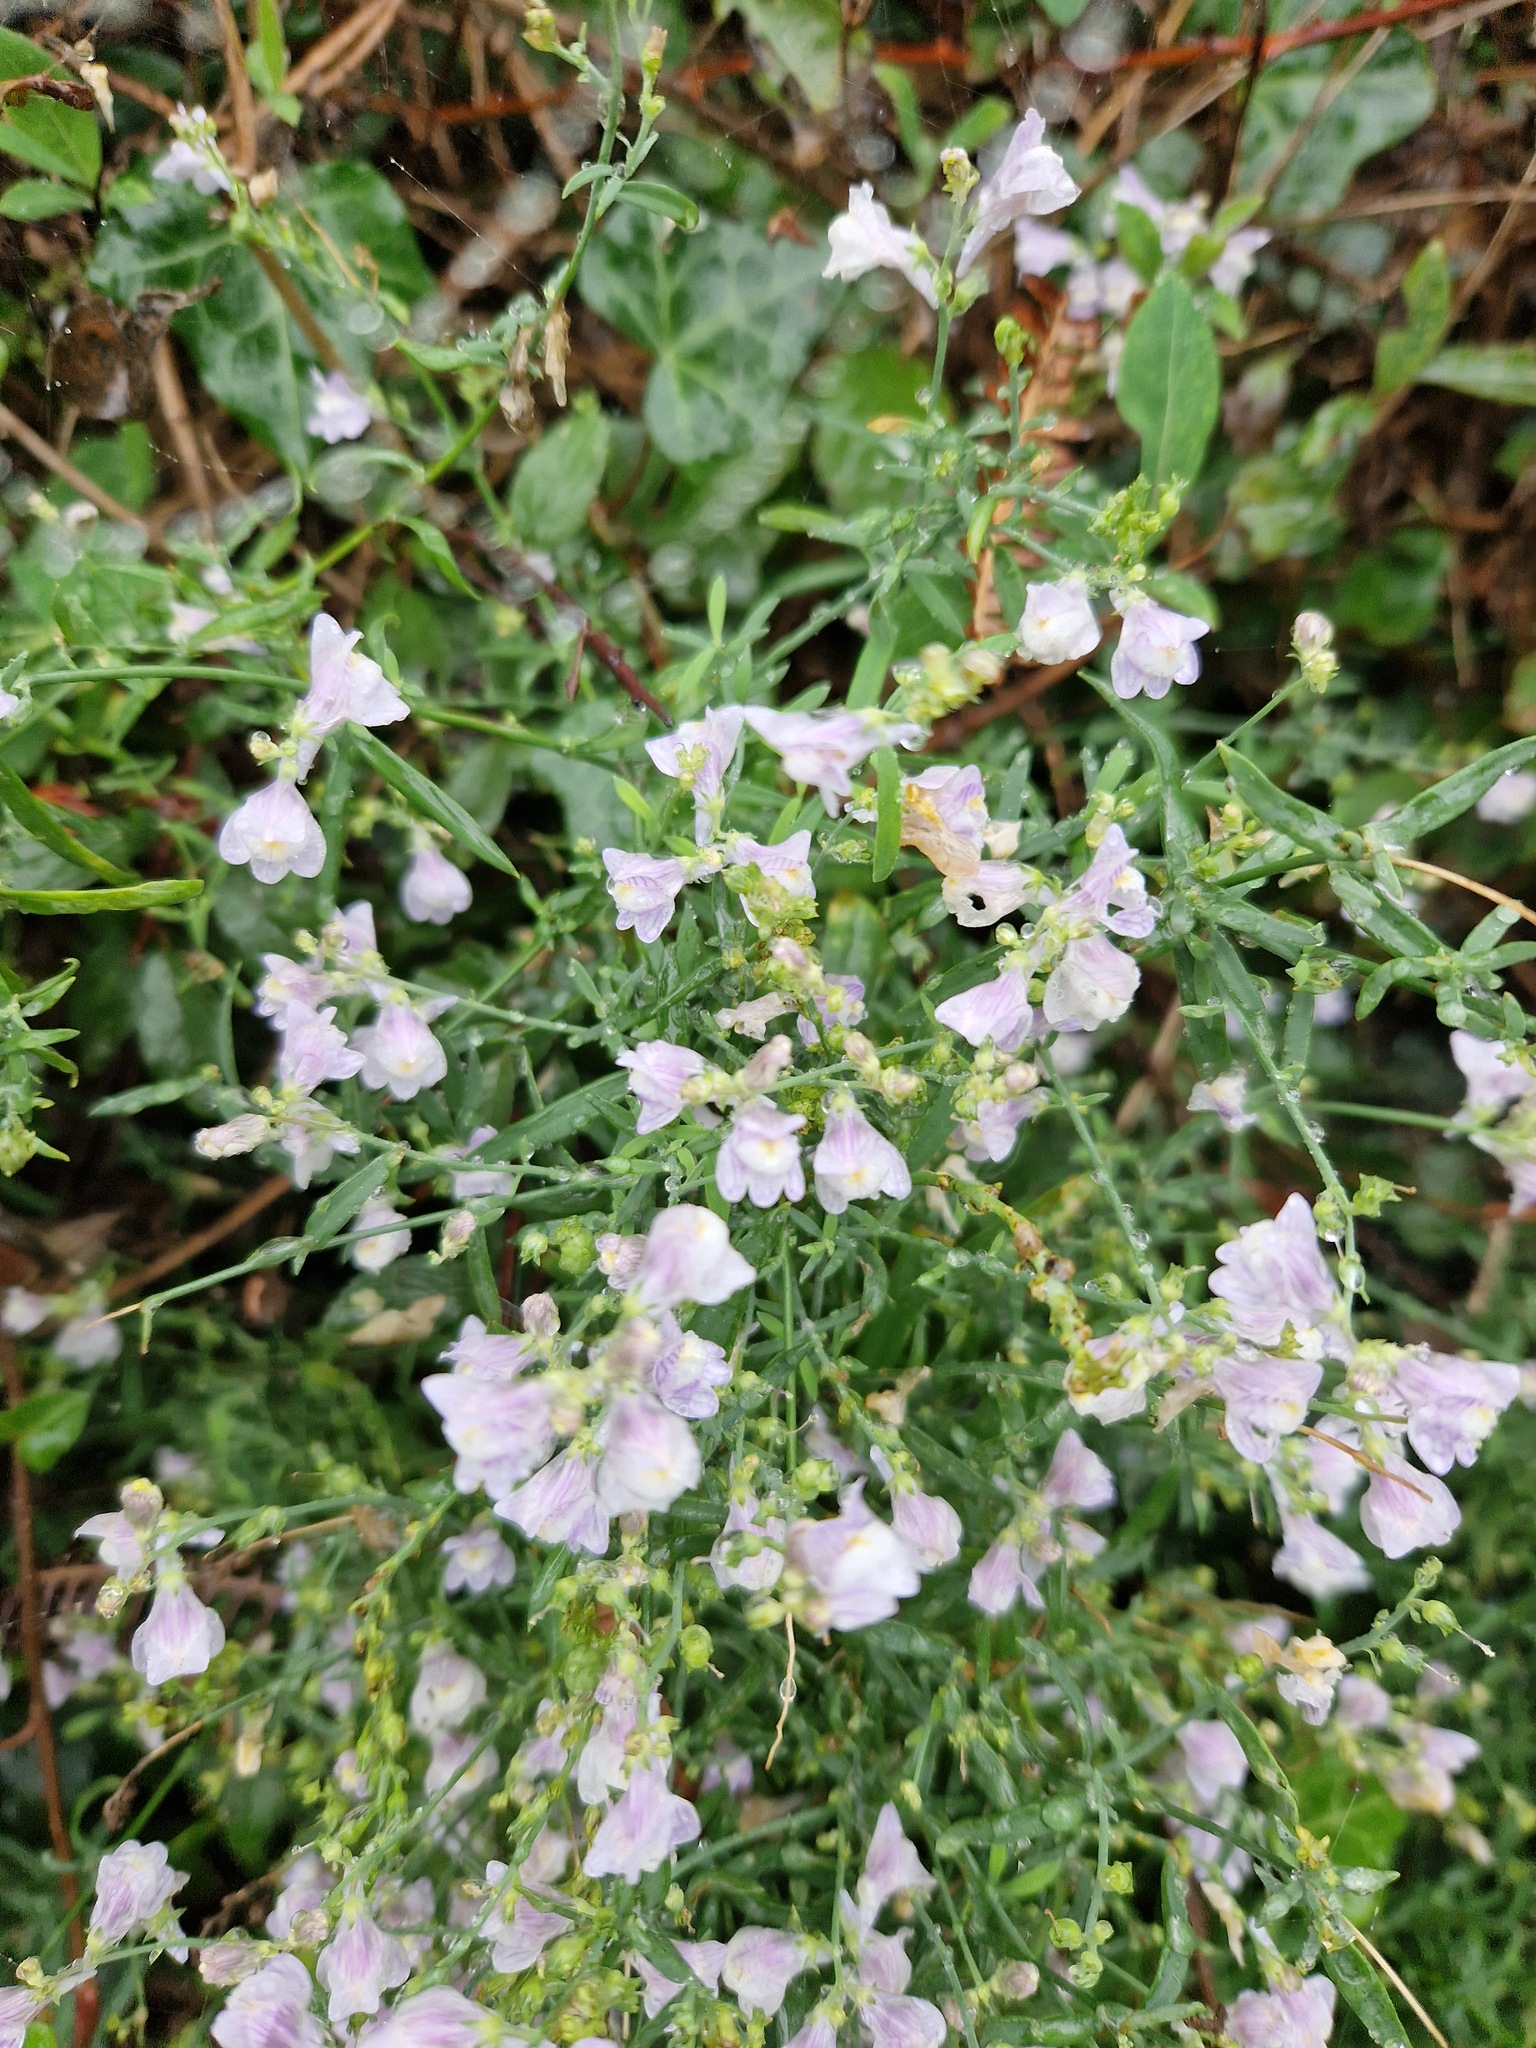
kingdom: Plantae
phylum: Tracheophyta
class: Magnoliopsida
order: Lamiales
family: Plantaginaceae
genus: Linaria
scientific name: Linaria repens
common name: Pale toadflax
